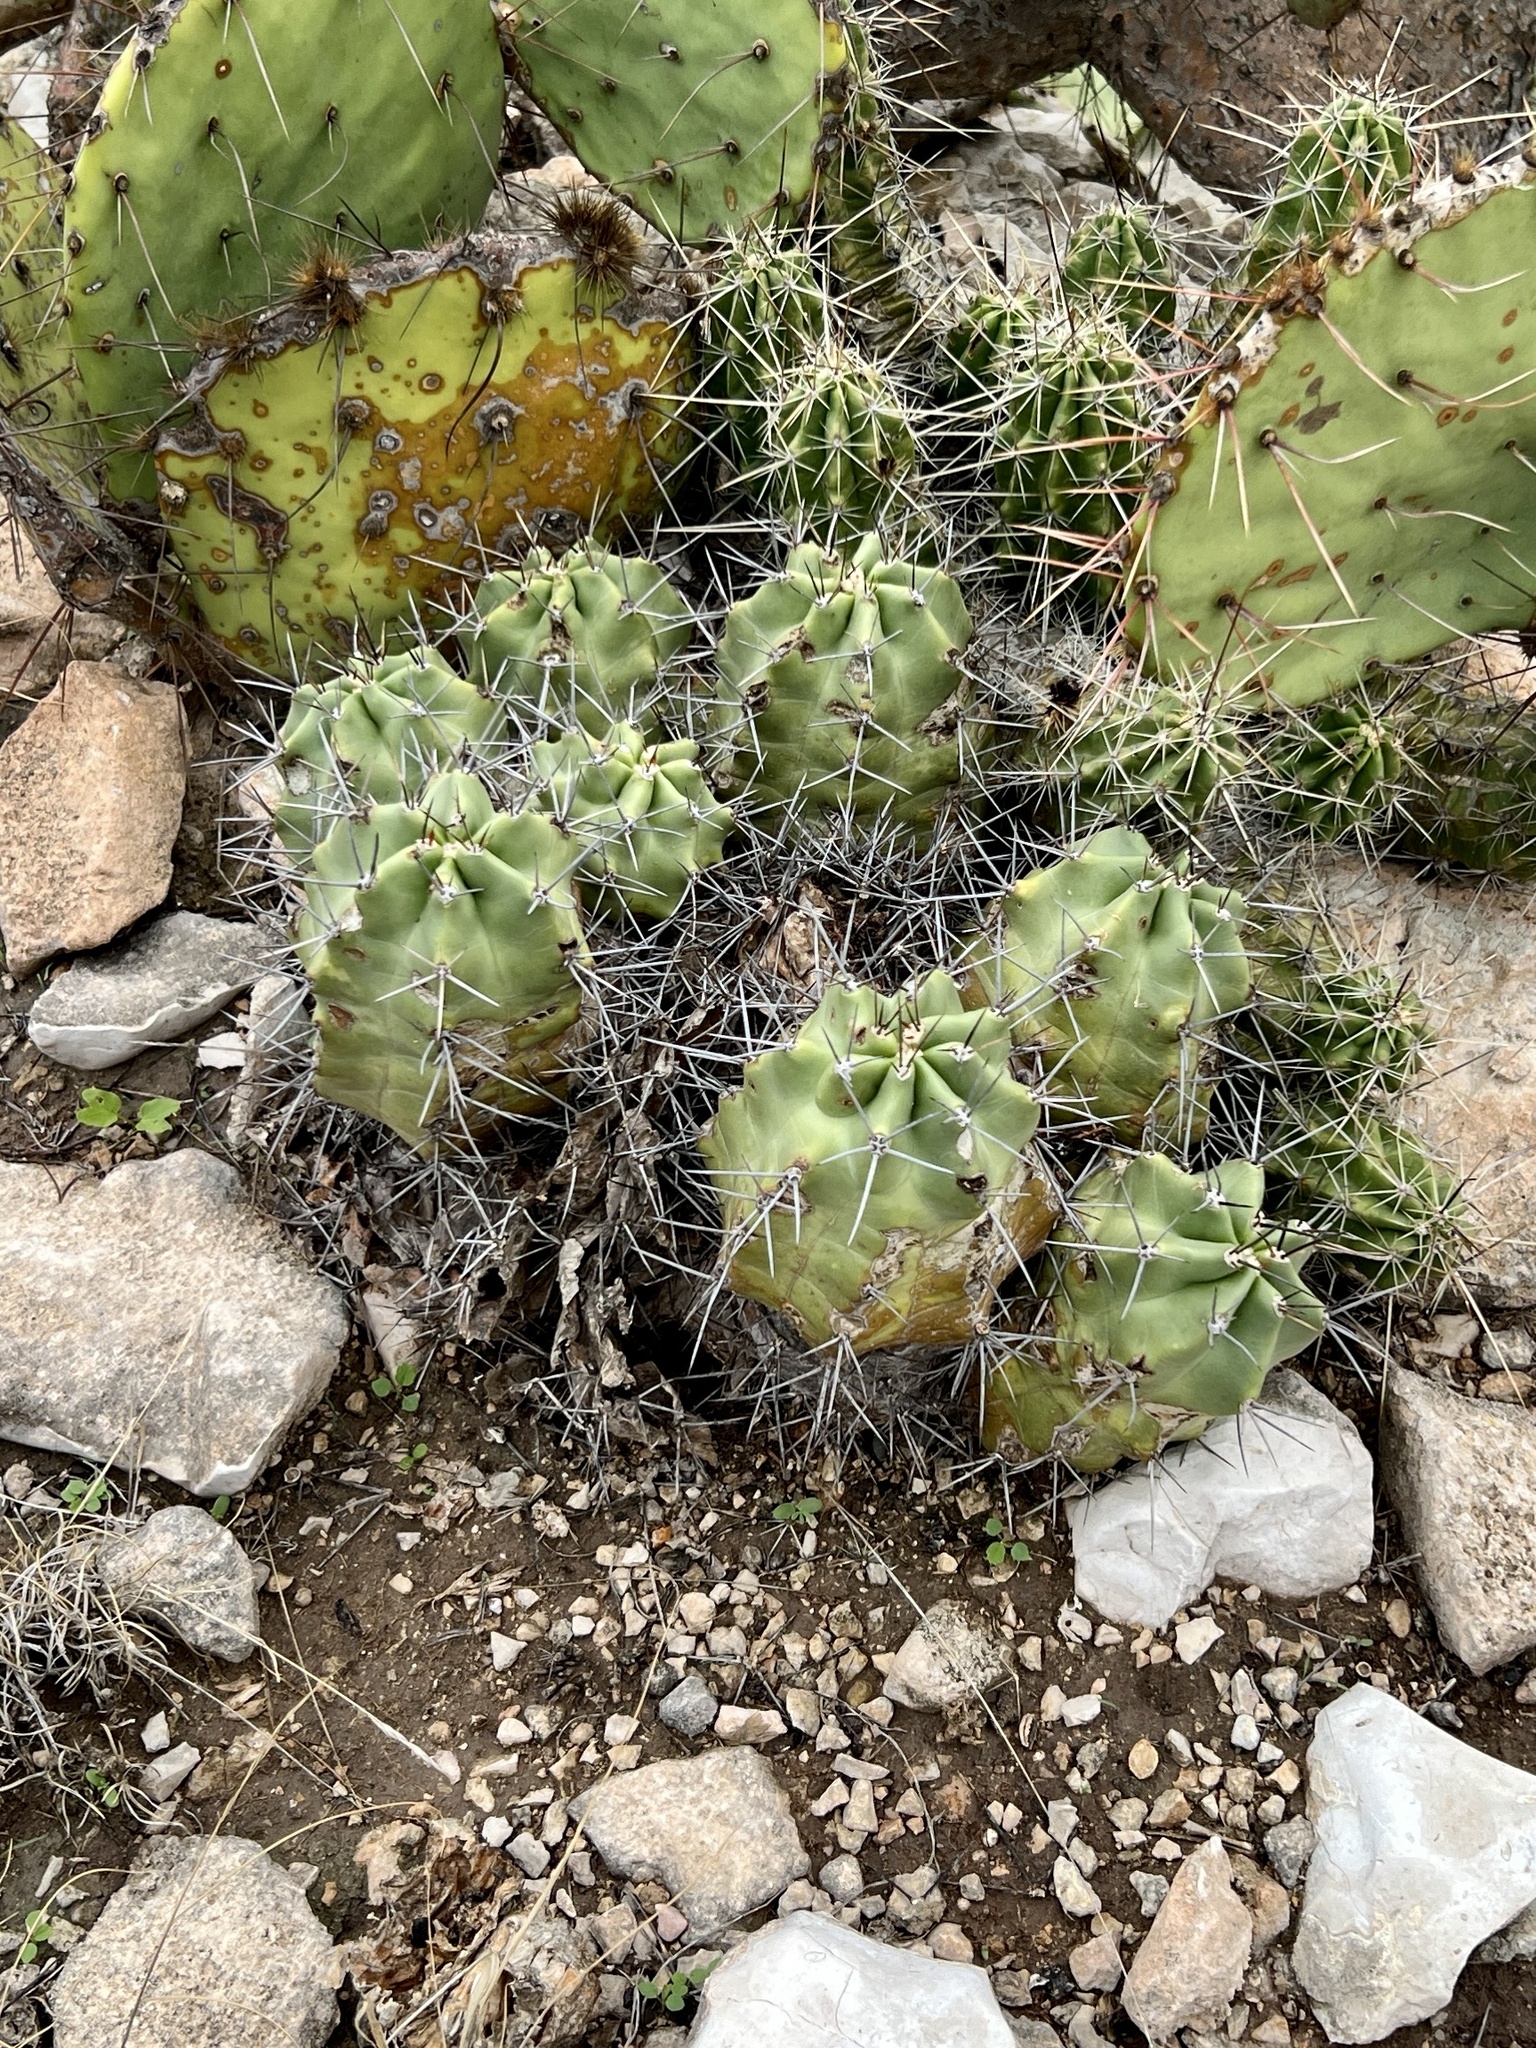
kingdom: Plantae
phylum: Tracheophyta
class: Magnoliopsida
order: Caryophyllales
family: Cactaceae
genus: Echinocereus
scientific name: Echinocereus coccineus
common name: Scarlet hedgehog cactus
